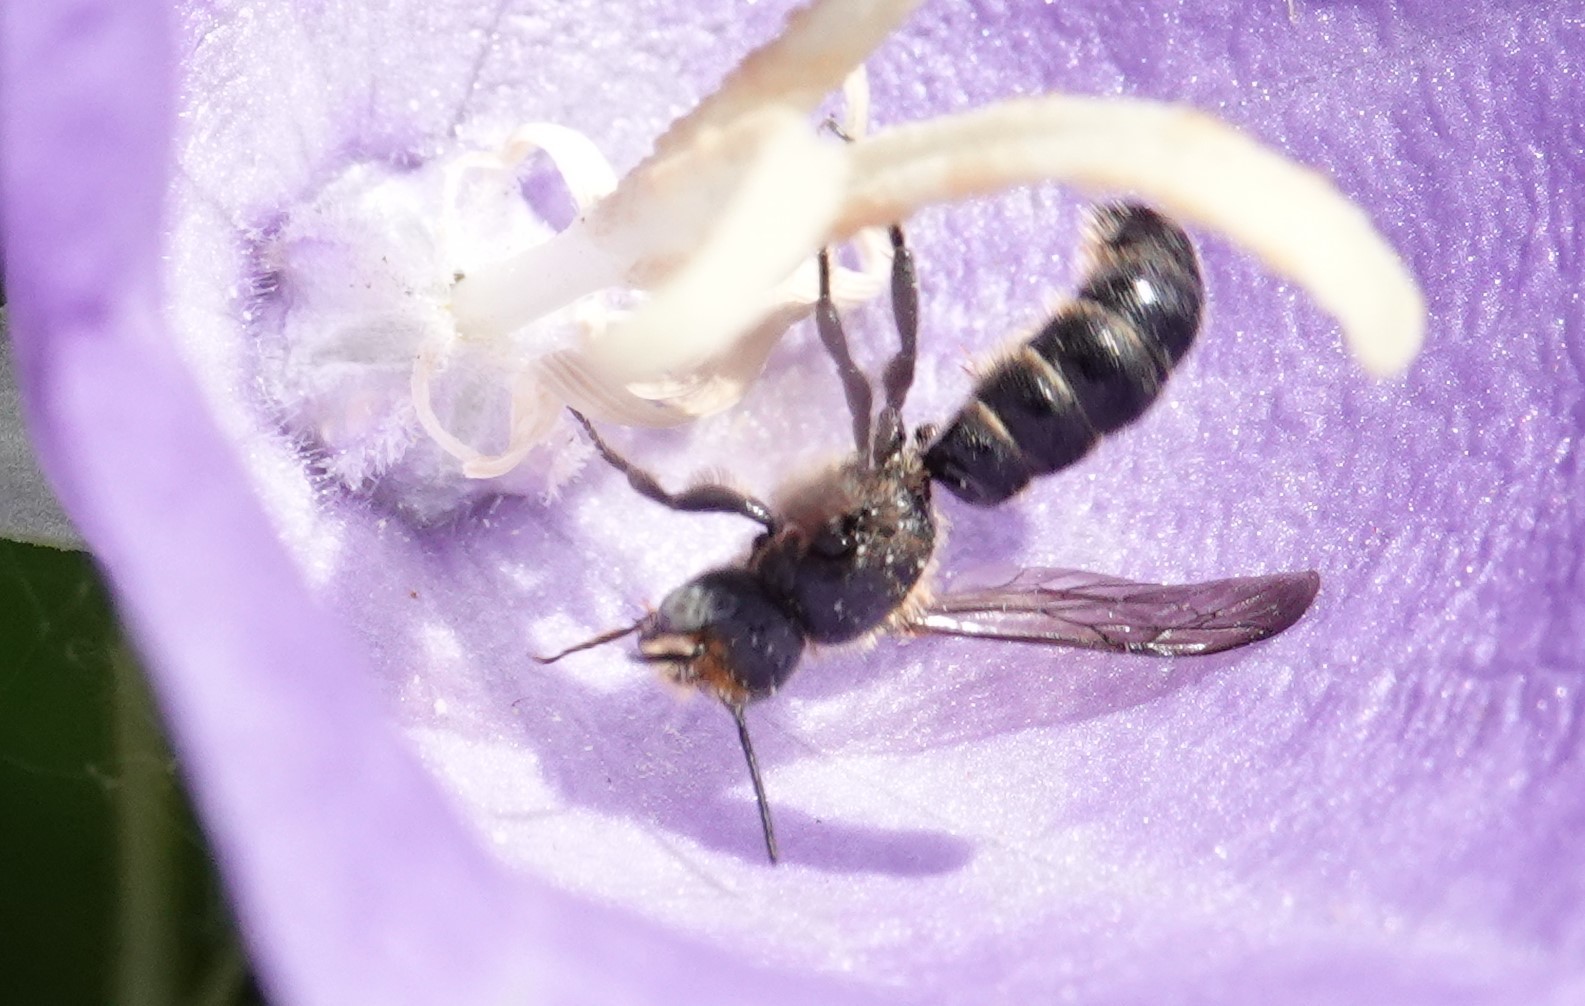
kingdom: Animalia
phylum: Arthropoda
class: Insecta
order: Hymenoptera
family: Megachilidae
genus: Chelostoma
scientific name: Chelostoma rapunculi
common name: Rampion scissor bee
